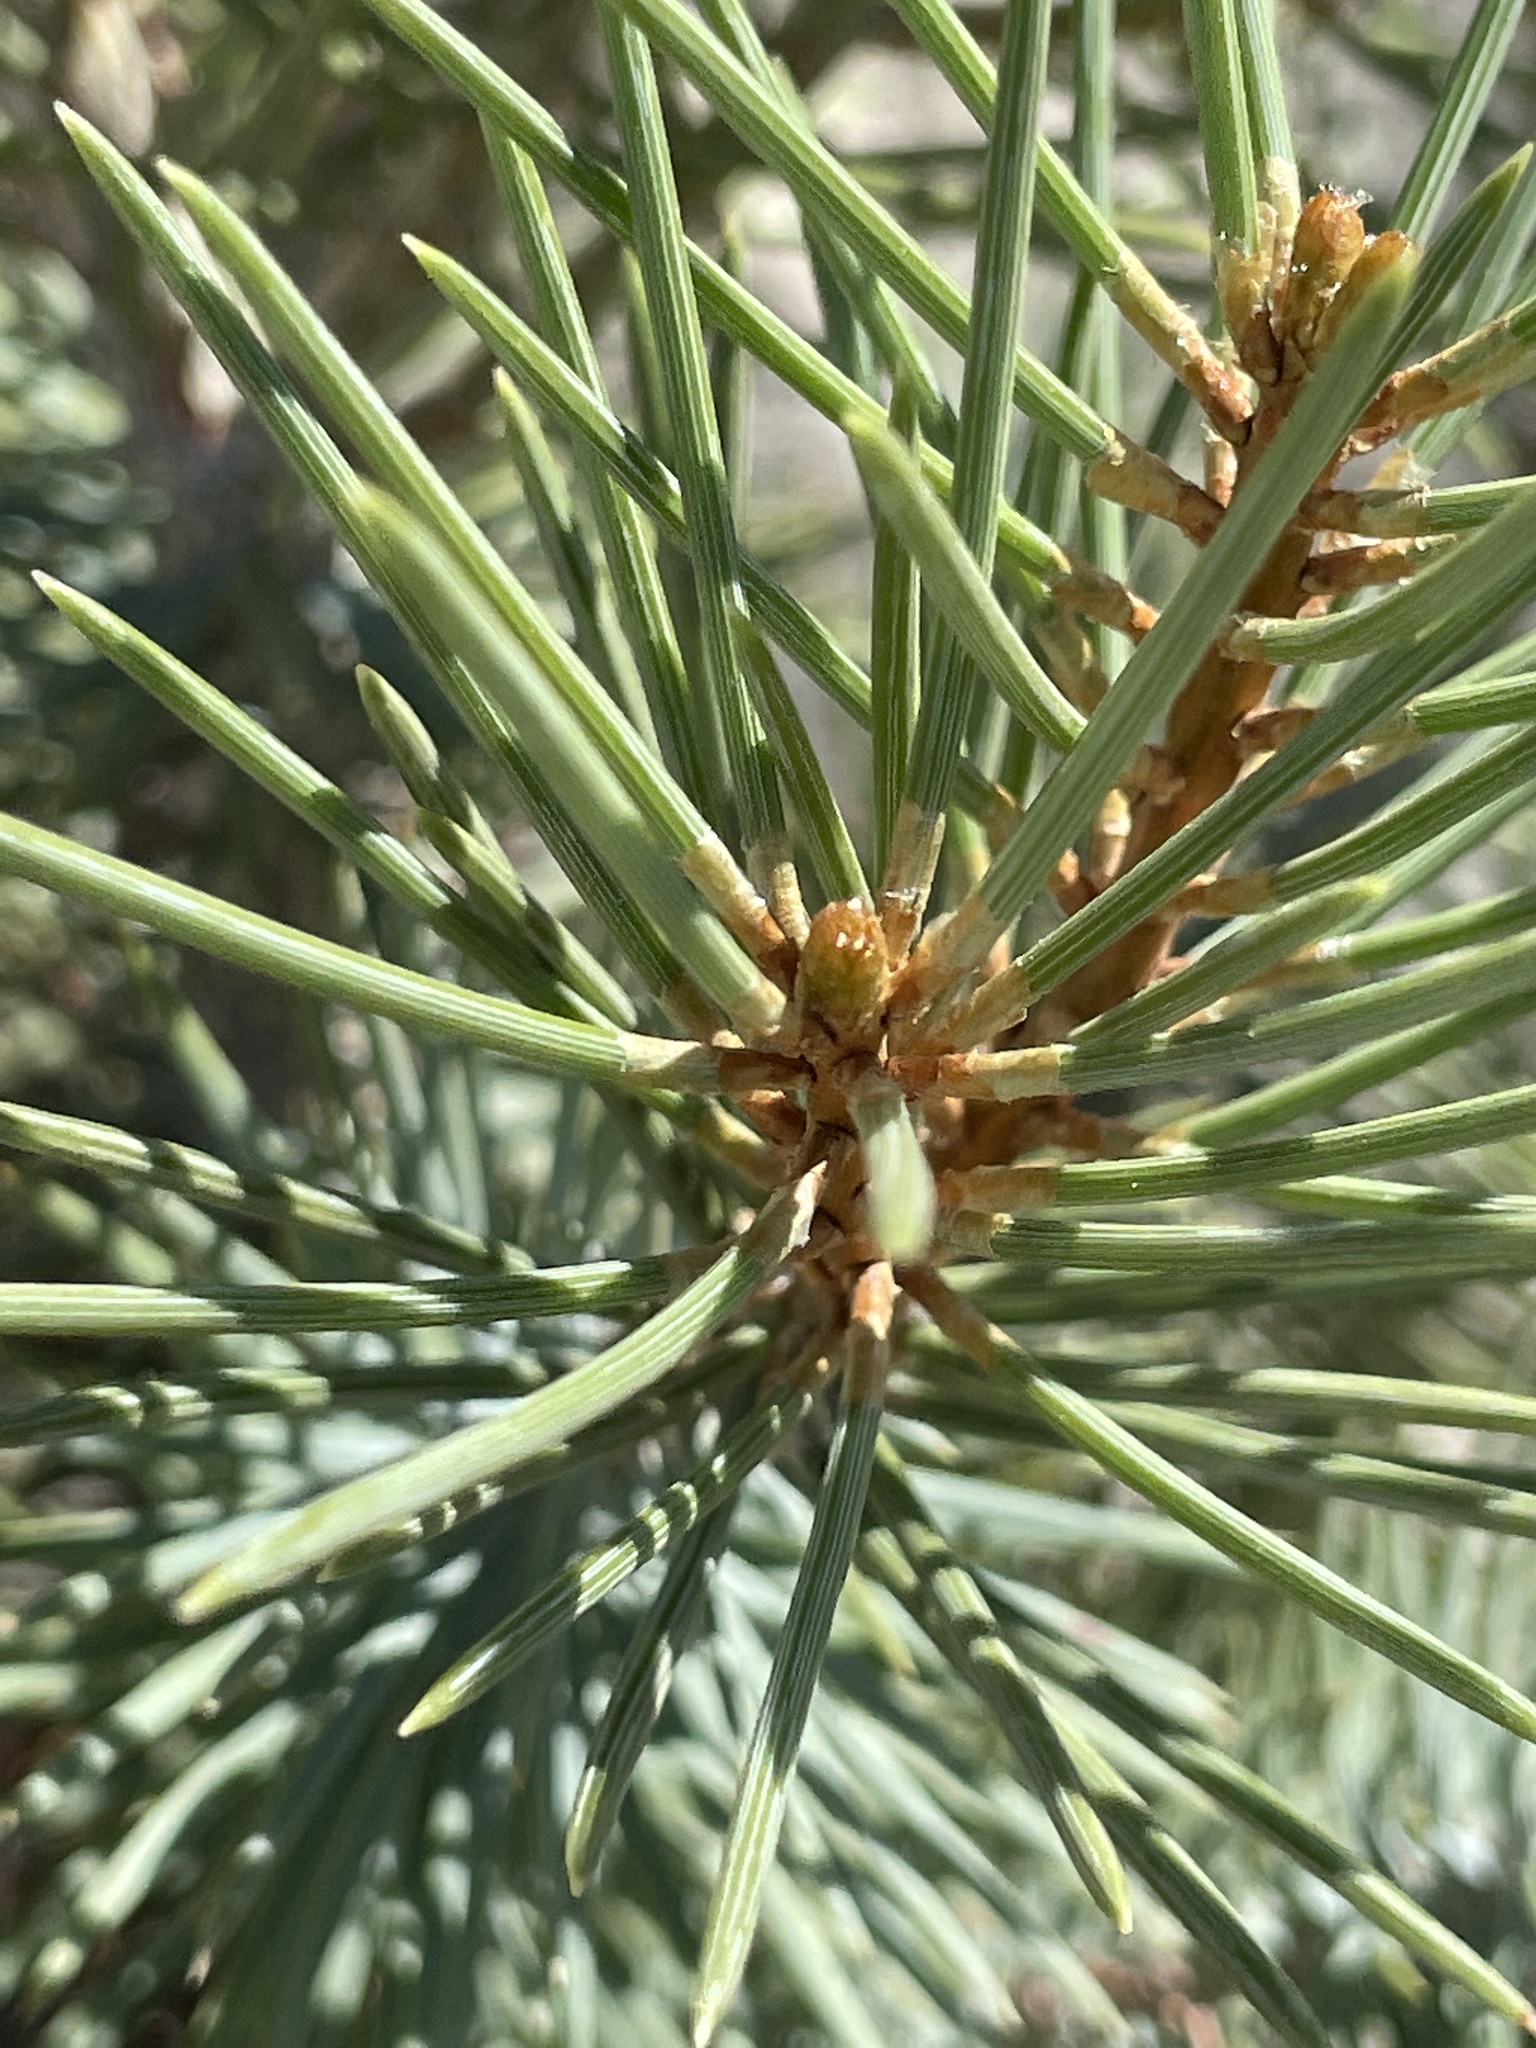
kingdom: Plantae
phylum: Tracheophyta
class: Pinopsida
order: Pinales
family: Pinaceae
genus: Pinus
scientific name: Pinus monophylla
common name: One-leaved nut pine
